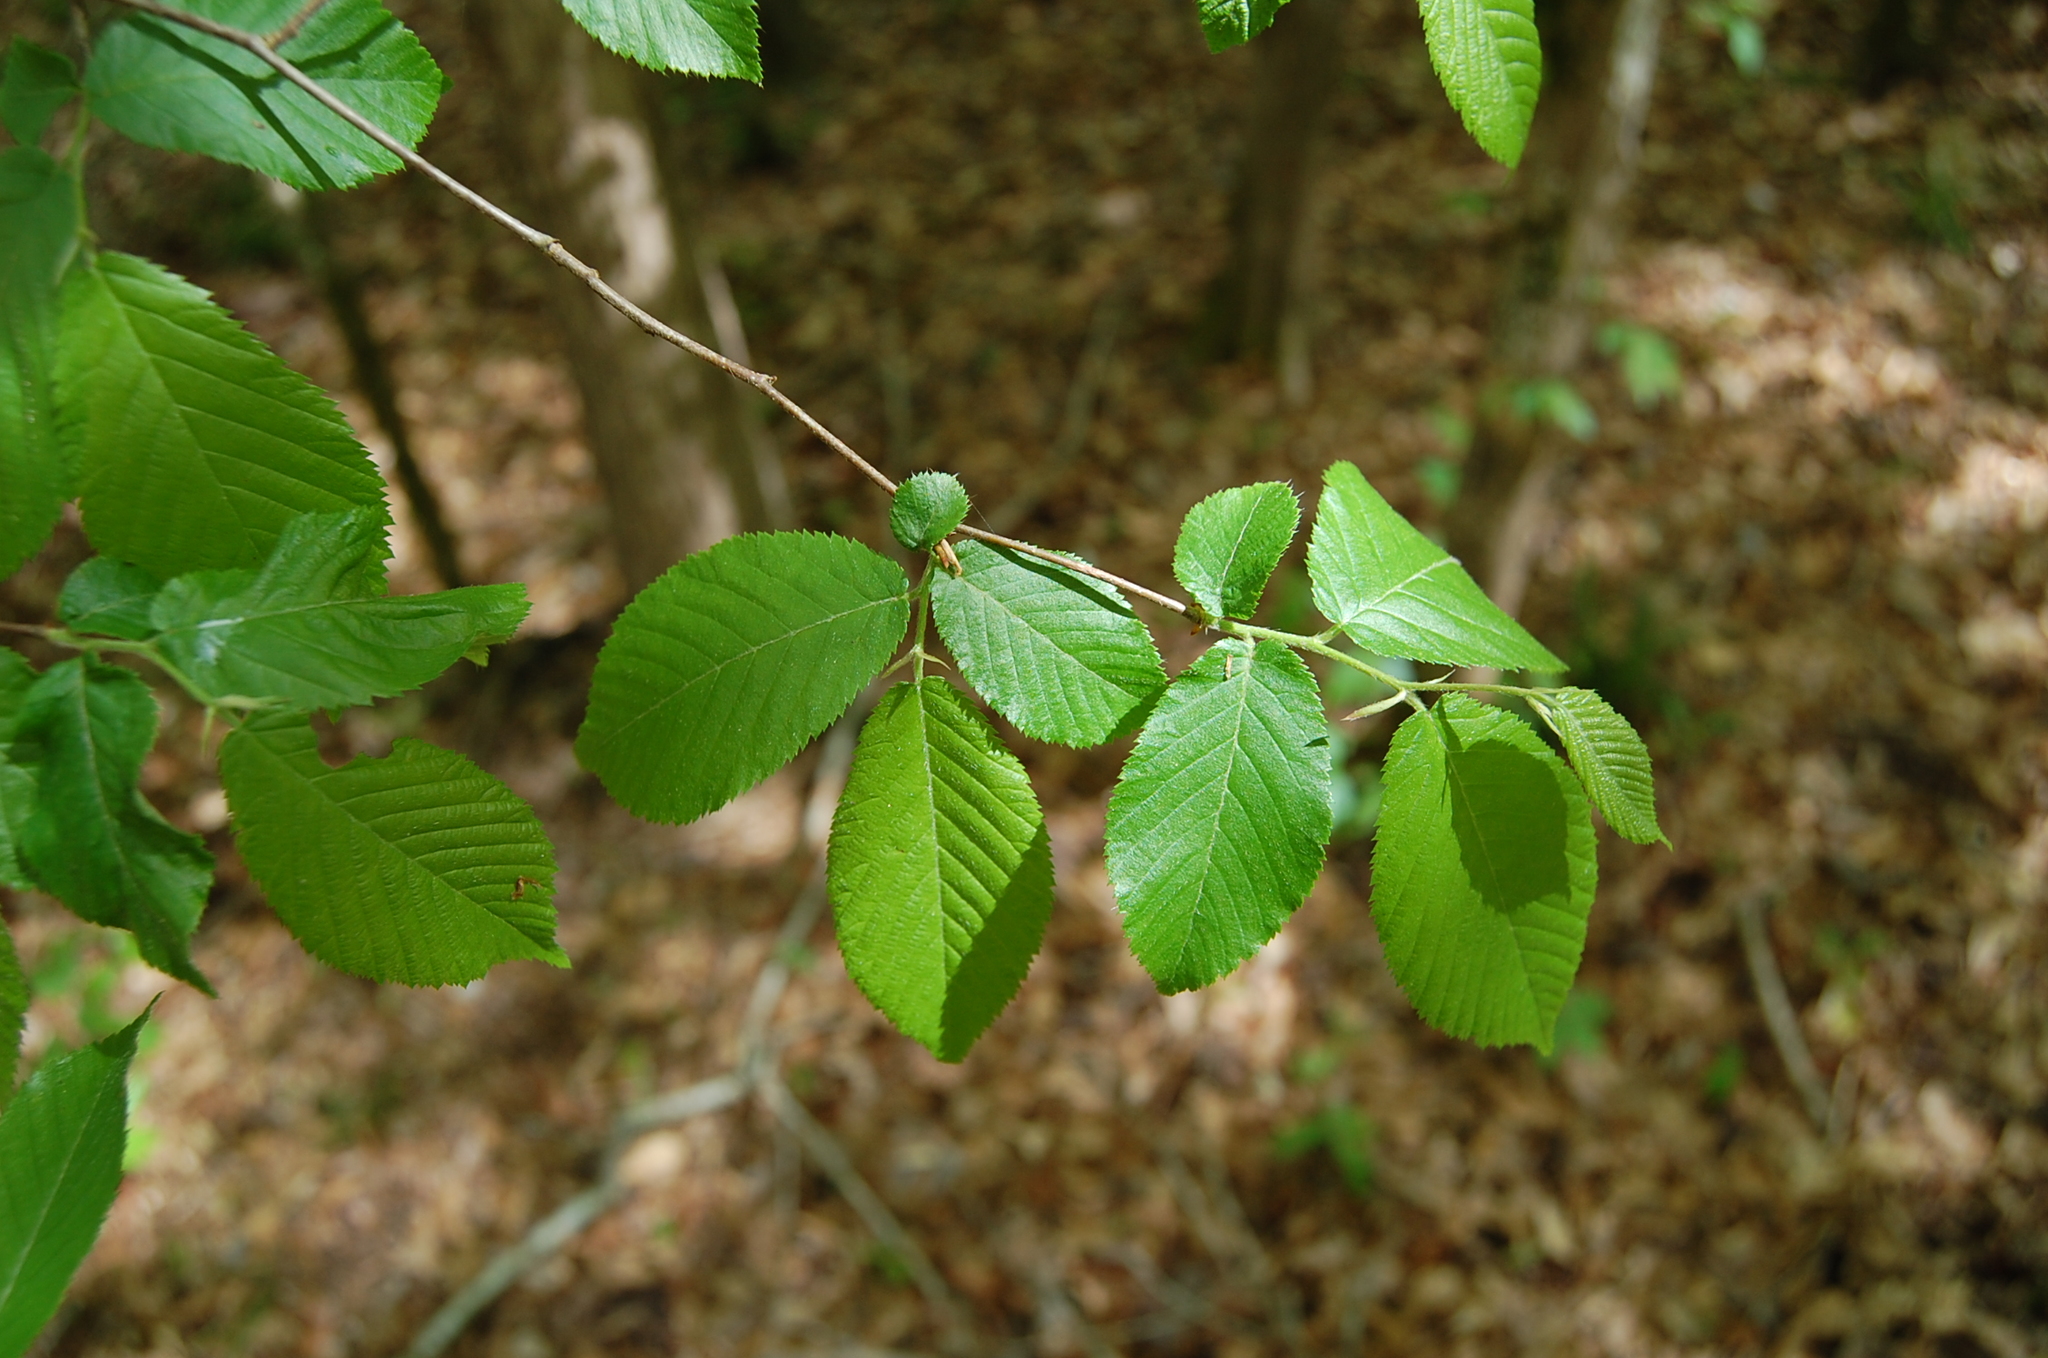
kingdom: Plantae
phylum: Tracheophyta
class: Magnoliopsida
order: Fagales
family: Betulaceae
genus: Ostrya
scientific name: Ostrya virginiana
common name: Ironwood
